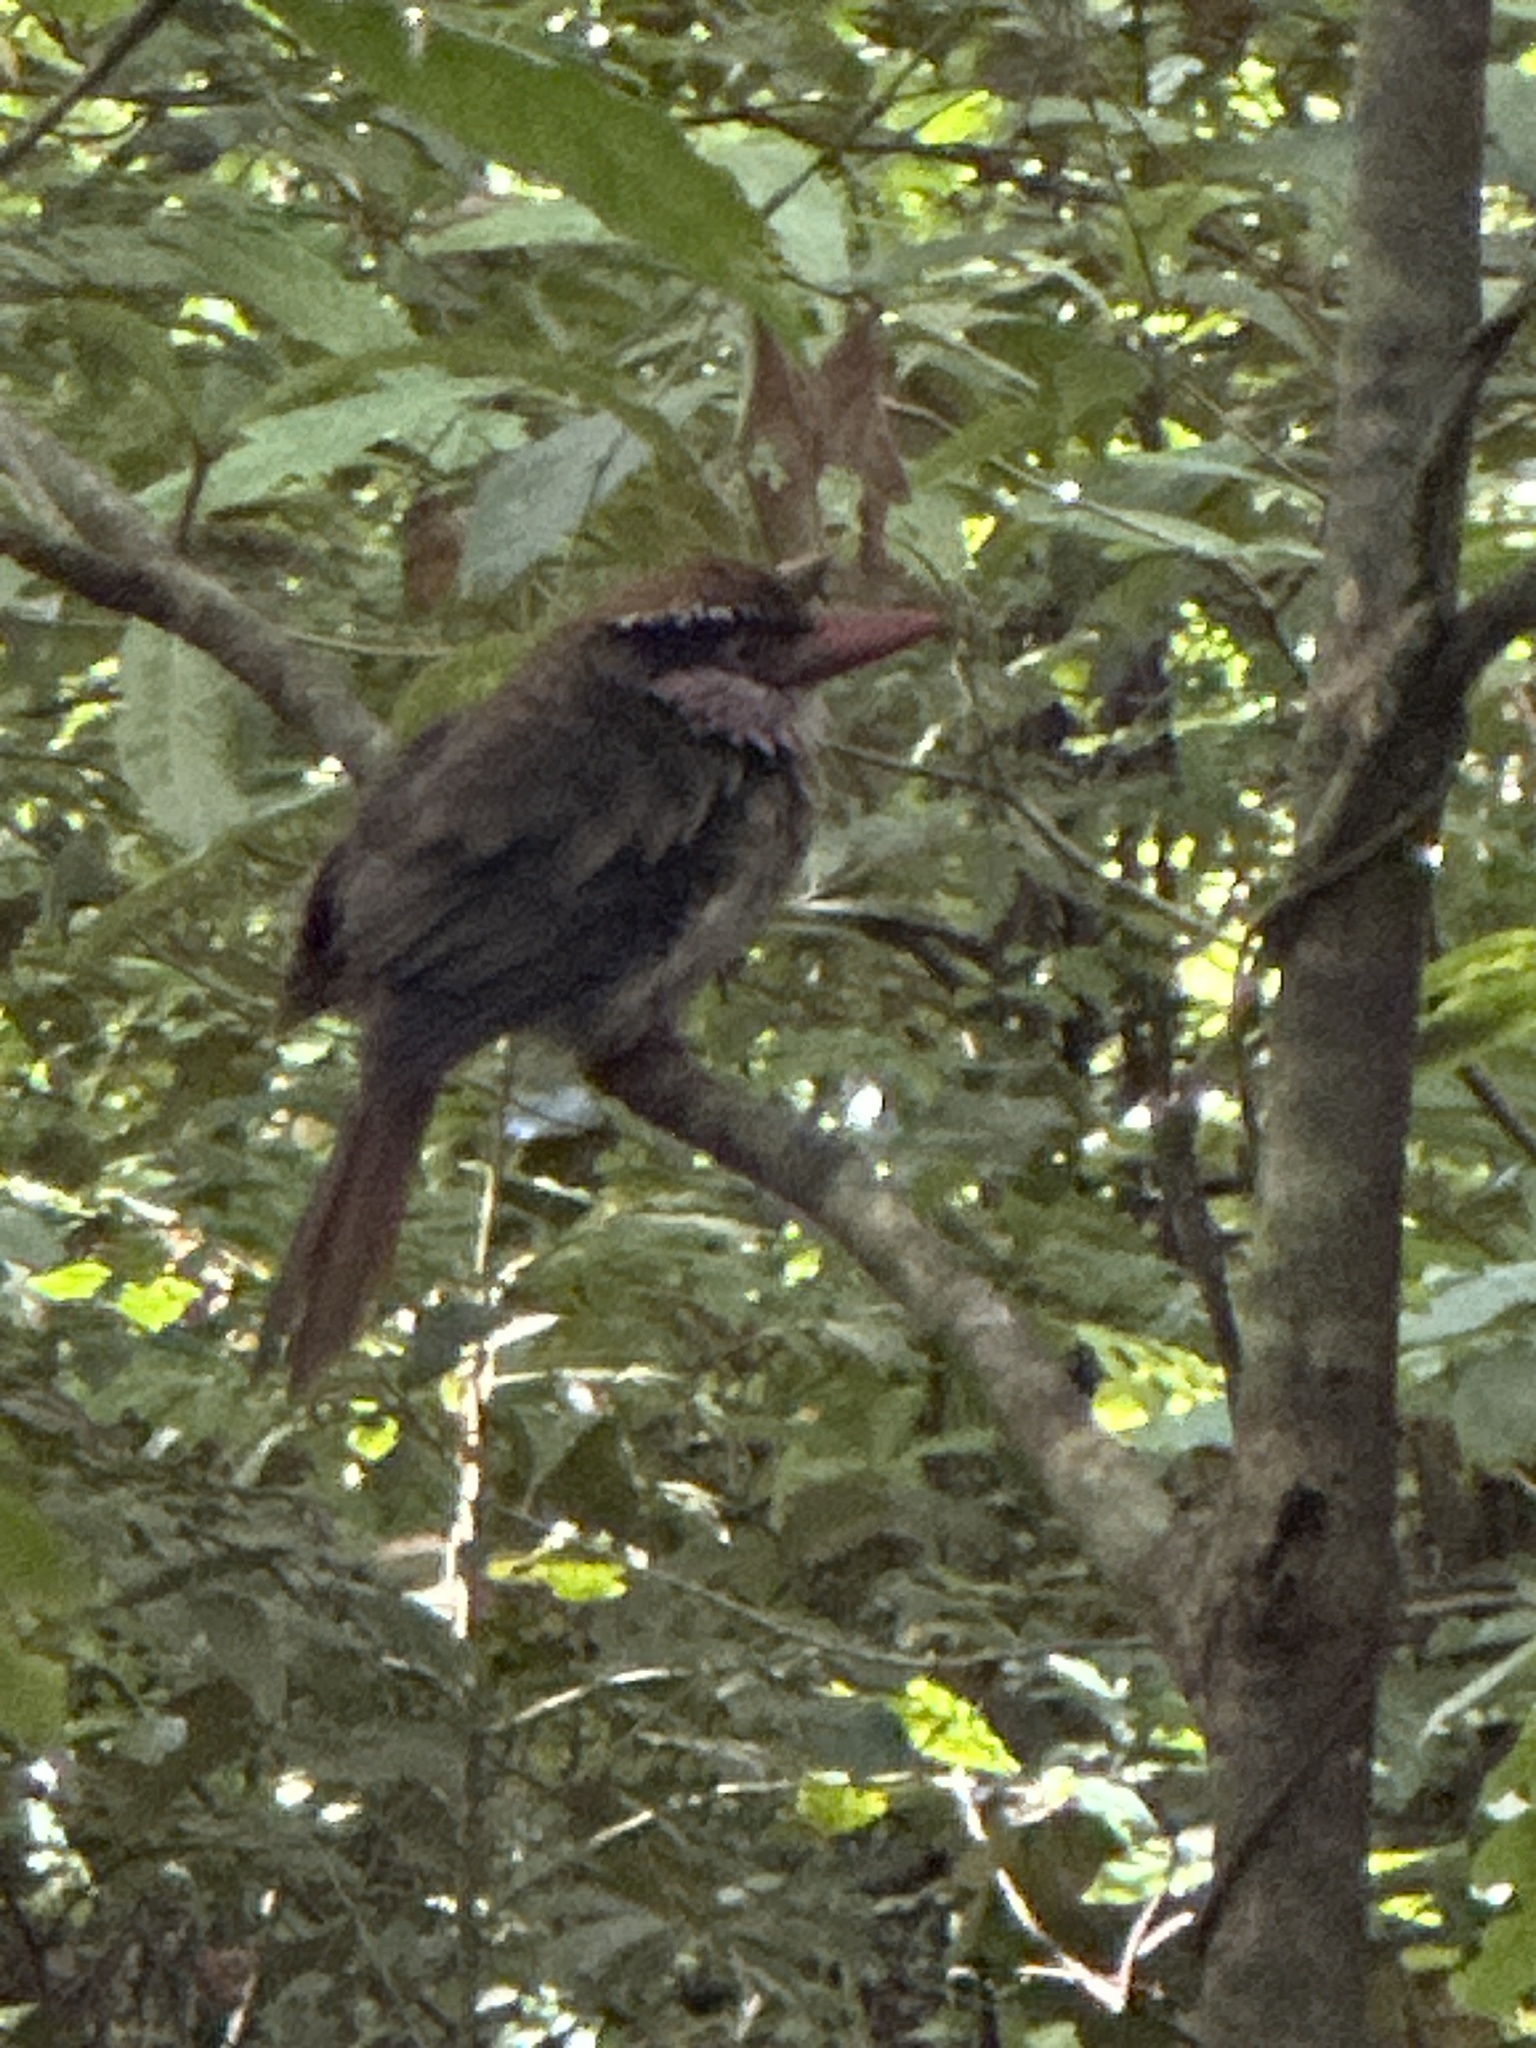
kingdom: Animalia
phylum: Chordata
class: Aves
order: Coraciiformes
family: Alcedinidae
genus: Cittura
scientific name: Cittura cyanotis
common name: Lilac kingfisher
